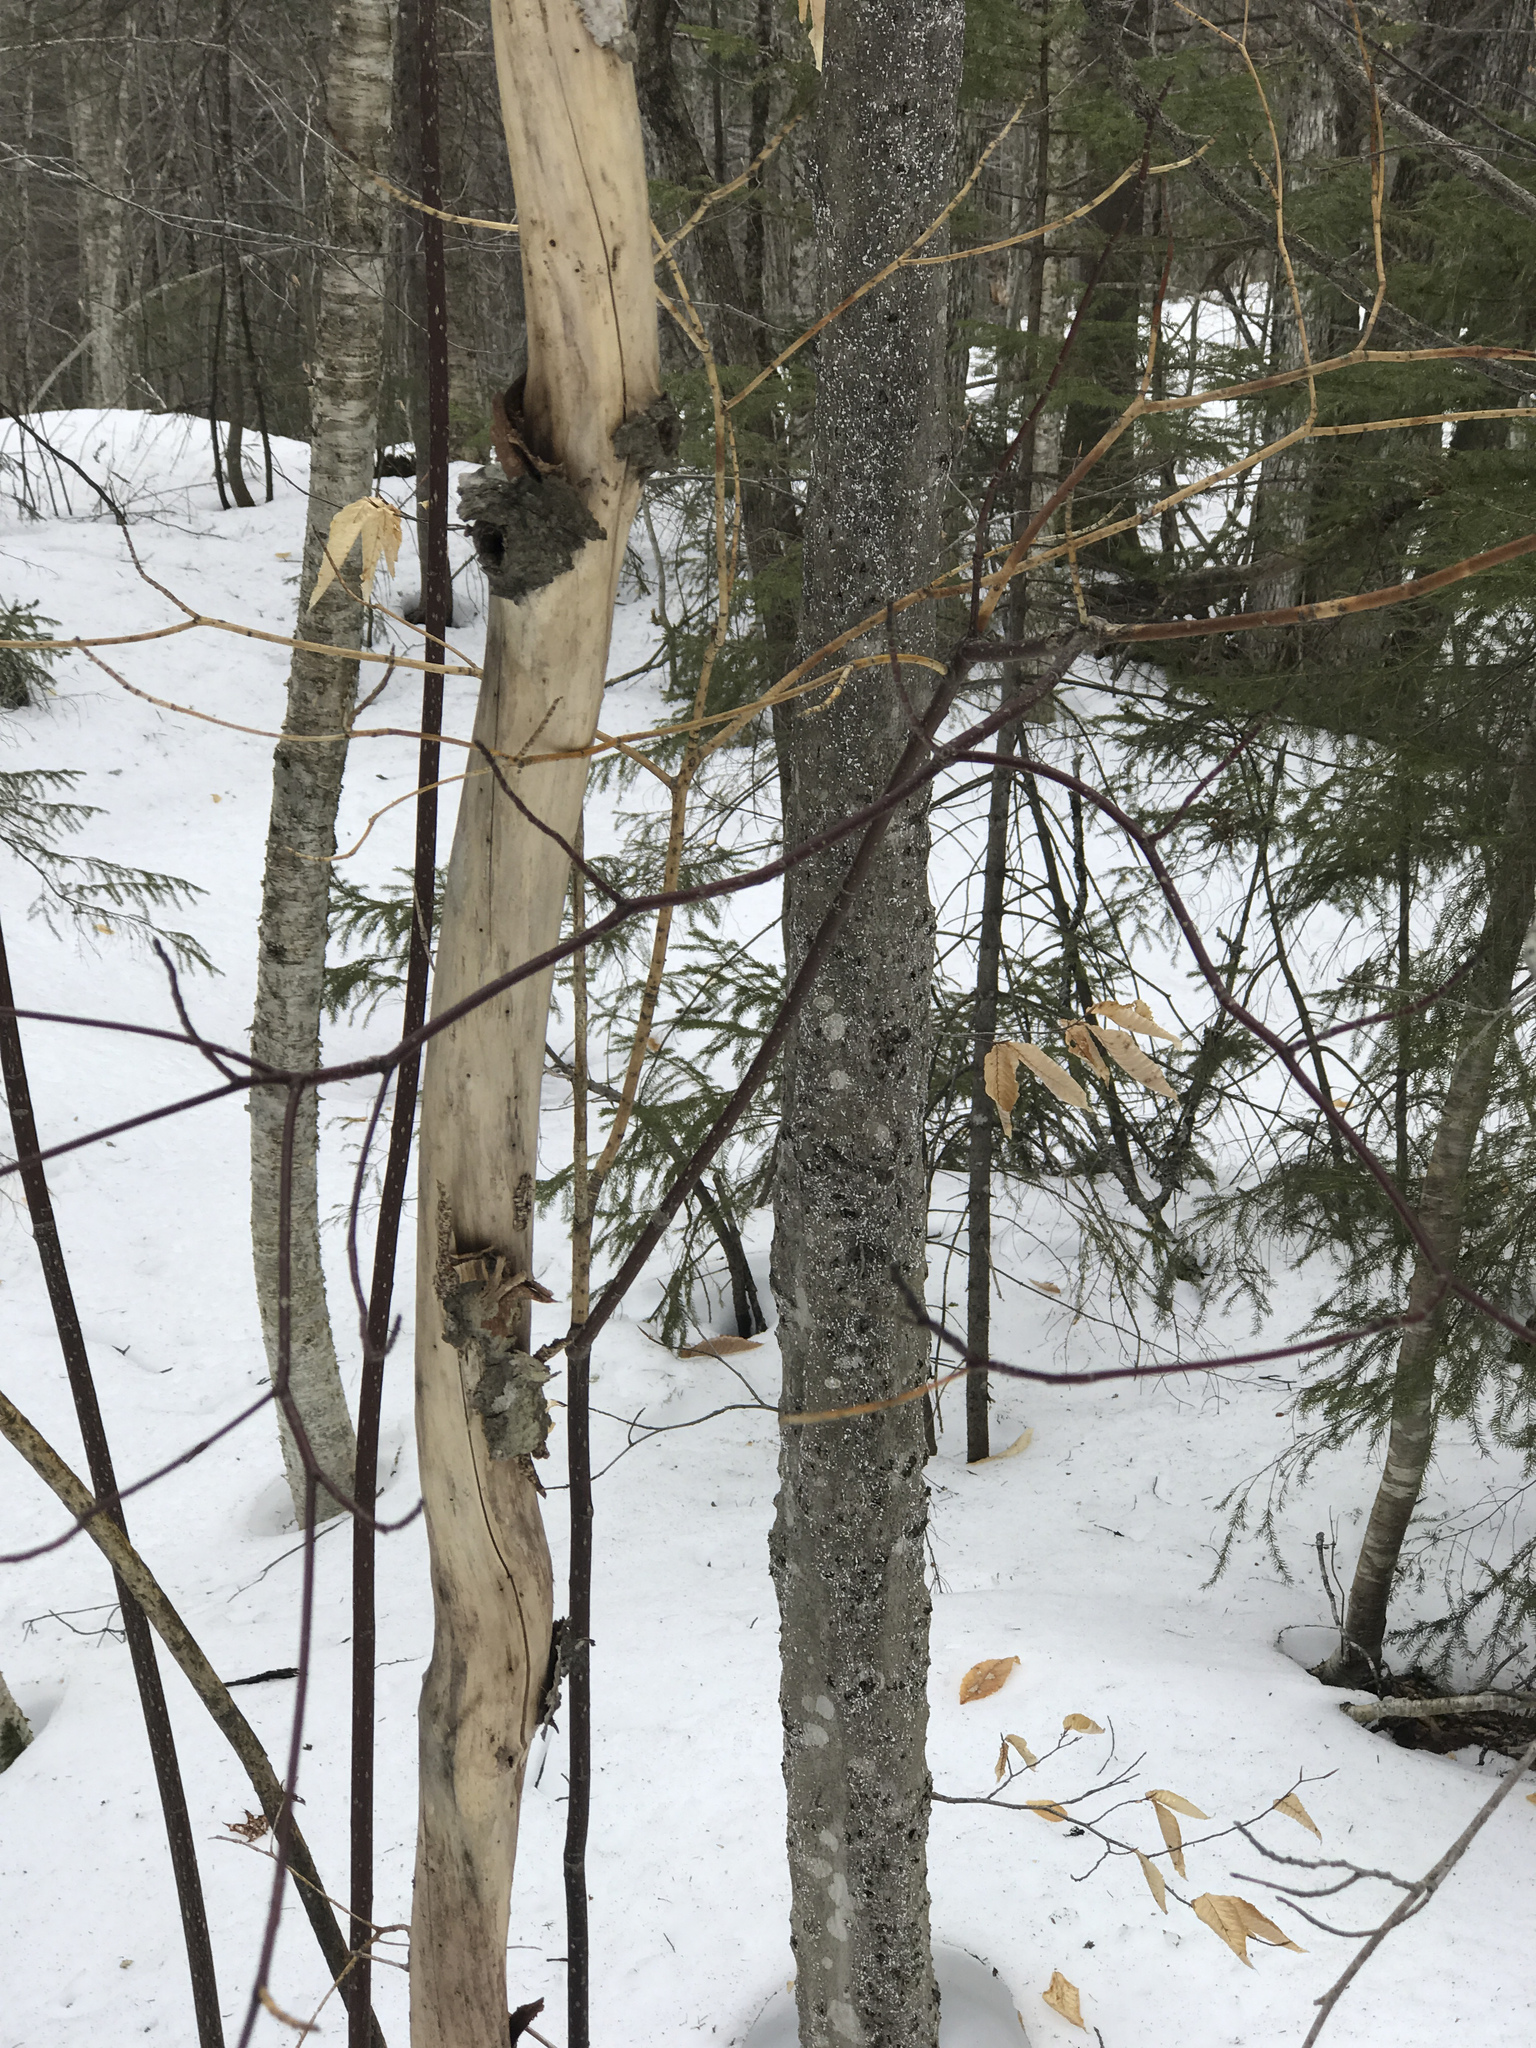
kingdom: Plantae
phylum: Tracheophyta
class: Magnoliopsida
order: Cornales
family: Cornaceae
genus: Cornus
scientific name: Cornus alternifolia
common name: Pagoda dogwood
